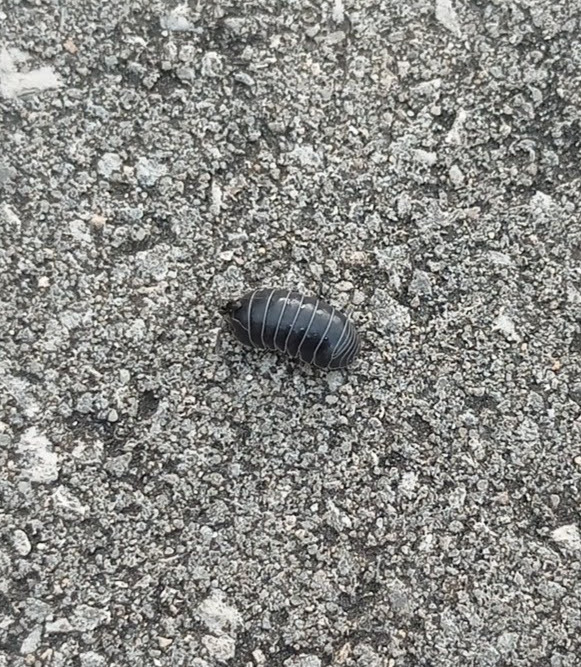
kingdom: Animalia
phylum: Arthropoda
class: Malacostraca
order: Isopoda
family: Armadillidiidae
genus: Armadillidium
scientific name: Armadillidium vulgare
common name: Common pill woodlouse
